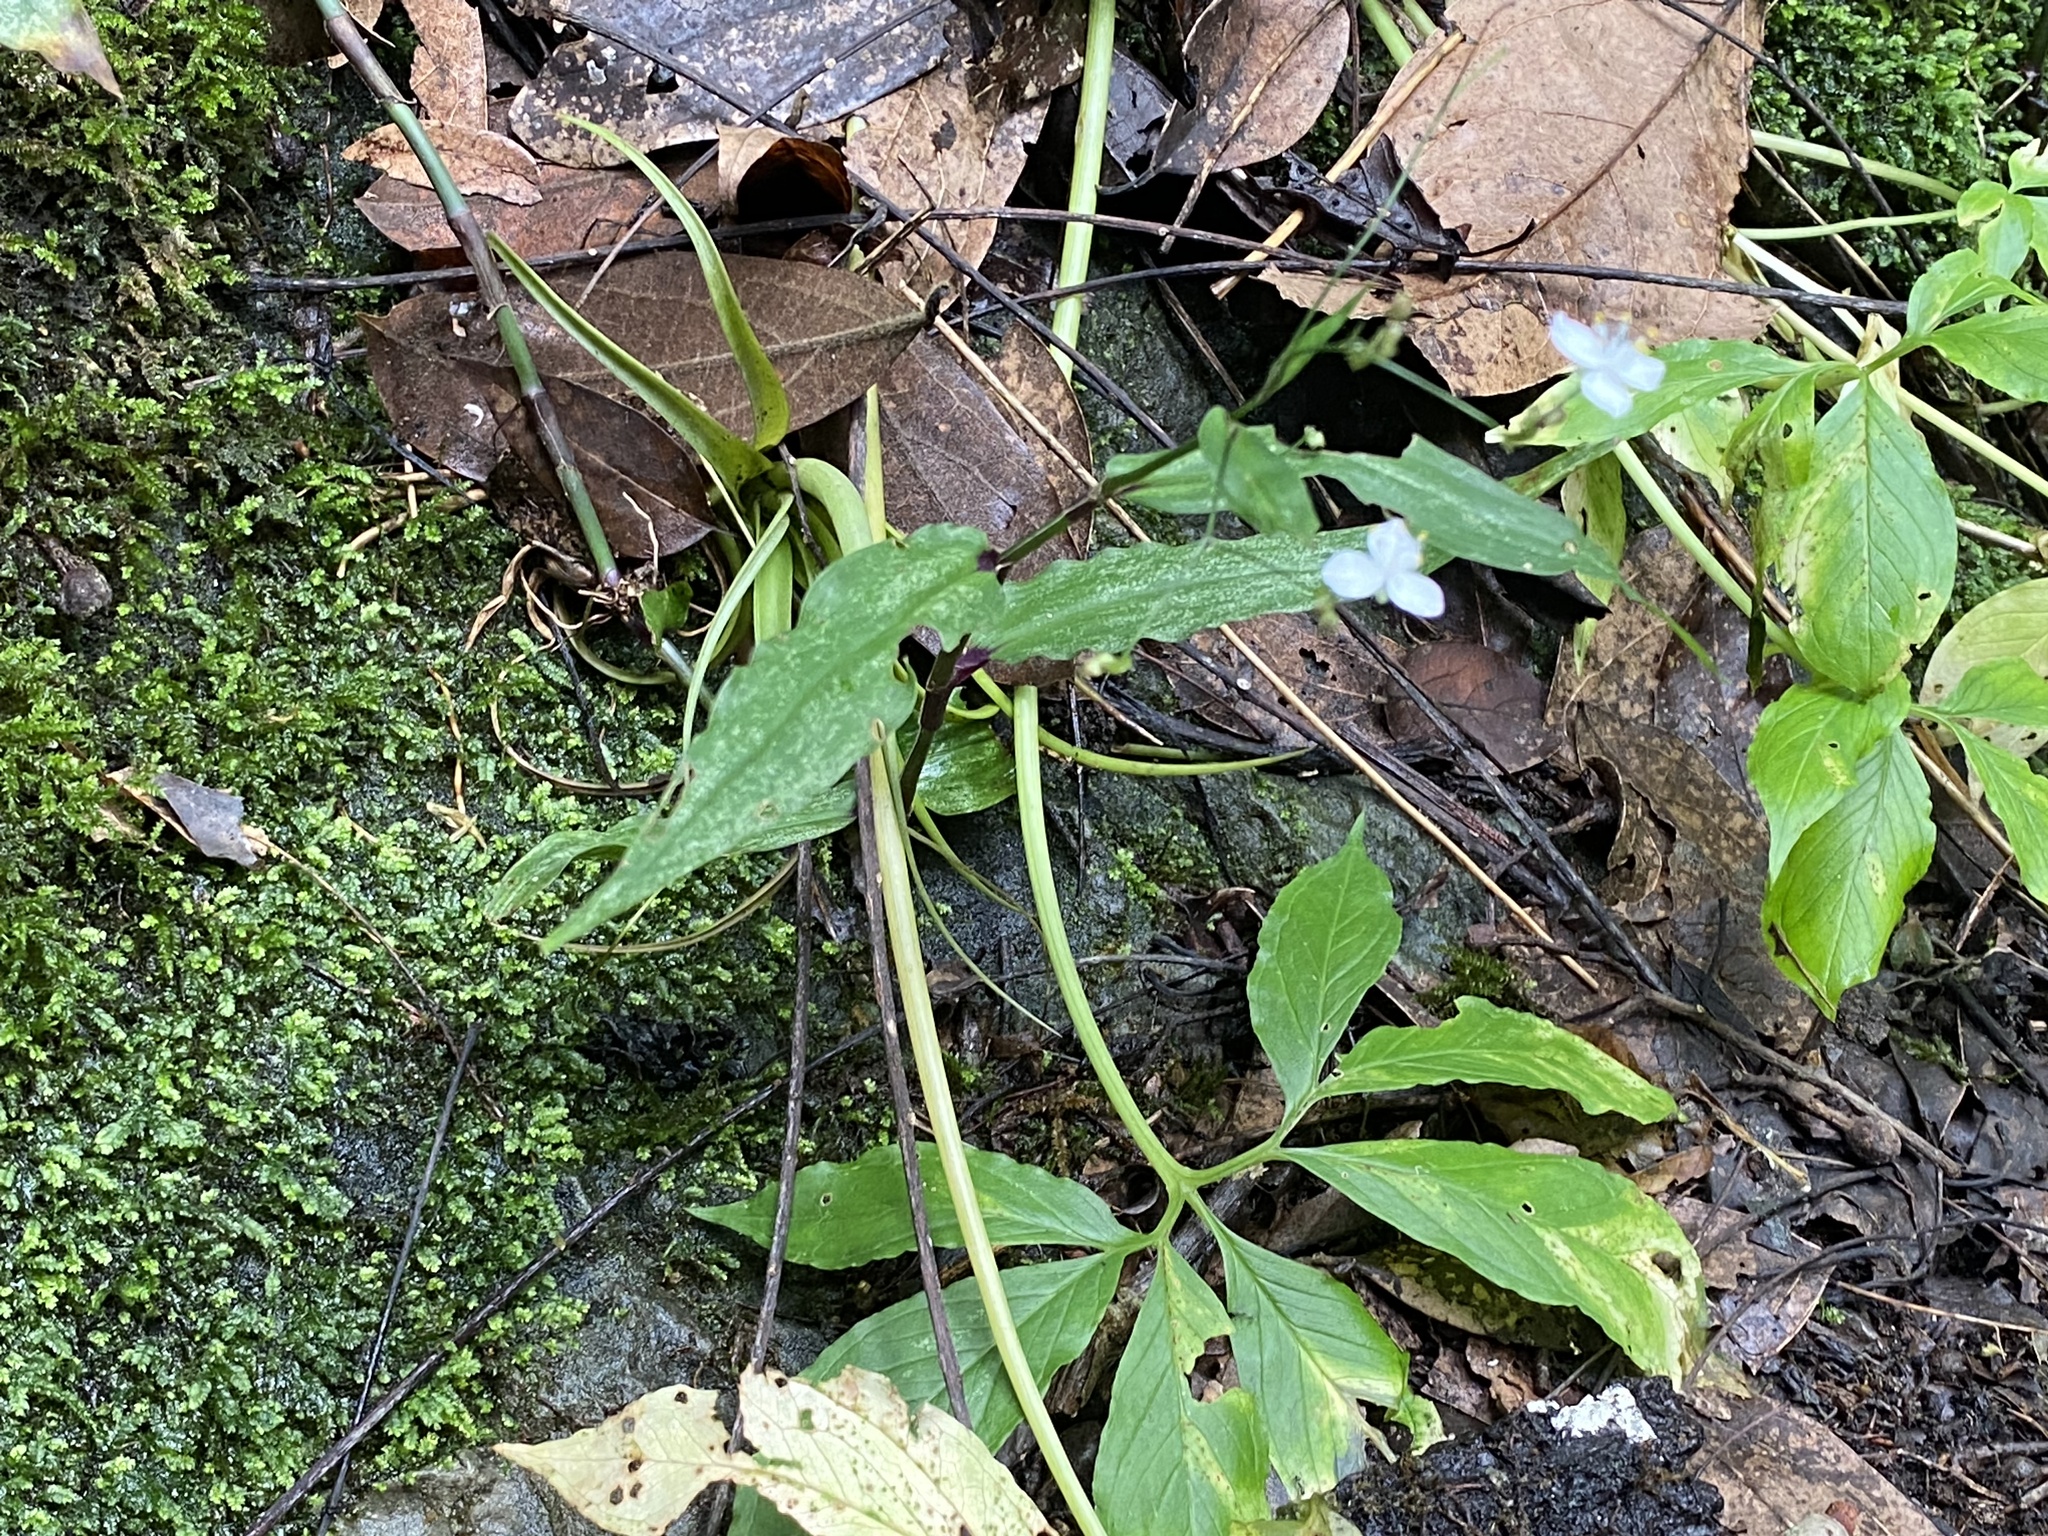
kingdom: Plantae
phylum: Tracheophyta
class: Liliopsida
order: Commelinales
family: Commelinaceae
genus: Gibasis
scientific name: Gibasis pellucida
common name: Dotted bridalveil
